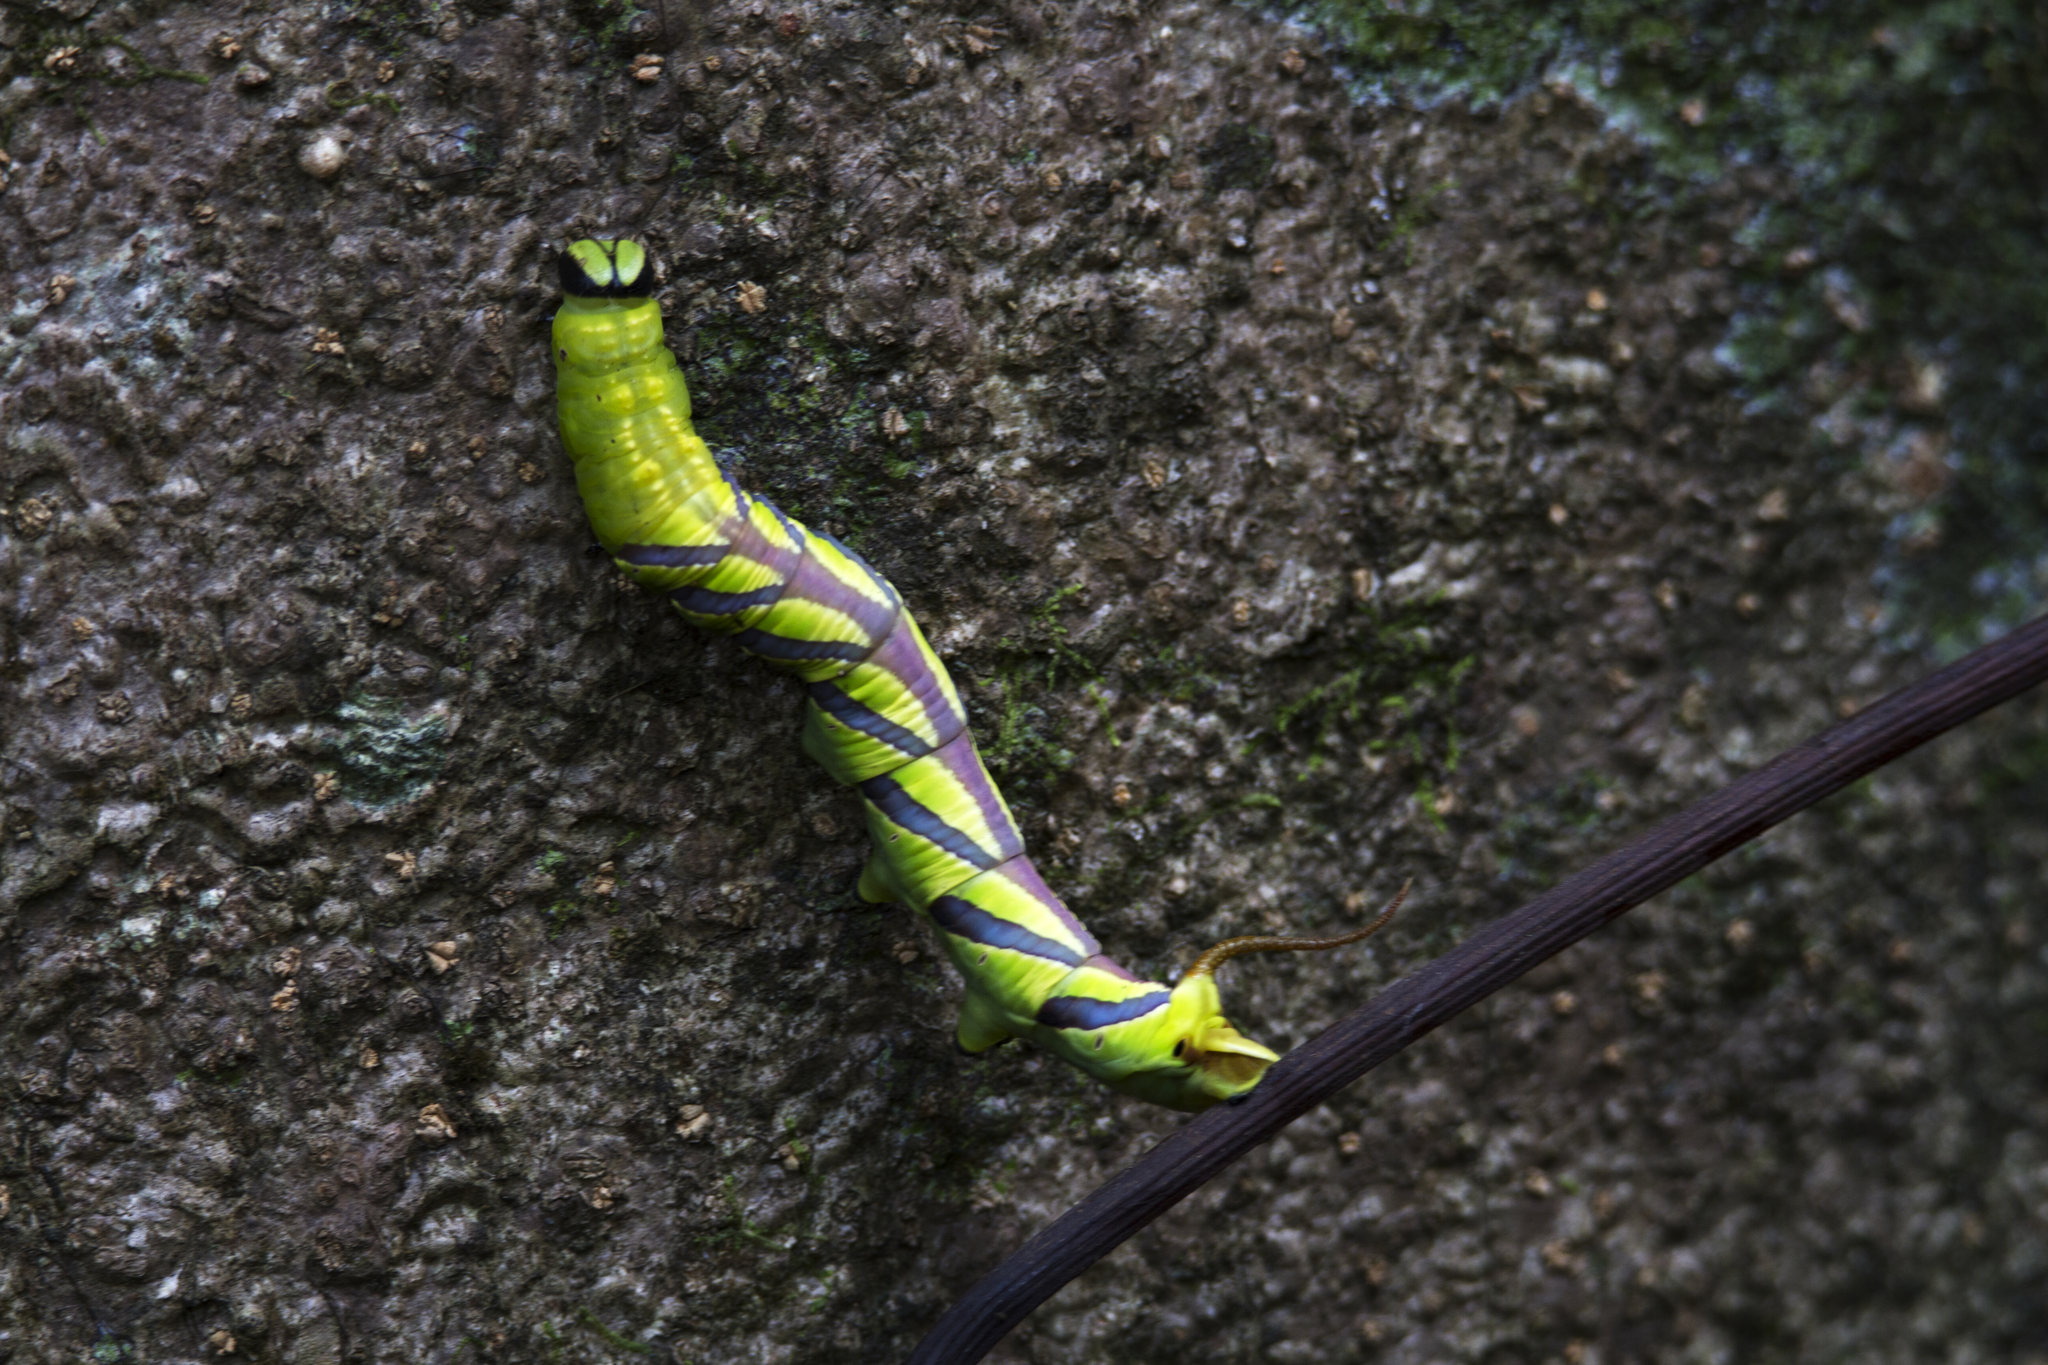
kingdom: Animalia
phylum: Arthropoda
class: Insecta
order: Lepidoptera
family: Sphingidae
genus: Coelonia
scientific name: Coelonia fulvinotata
